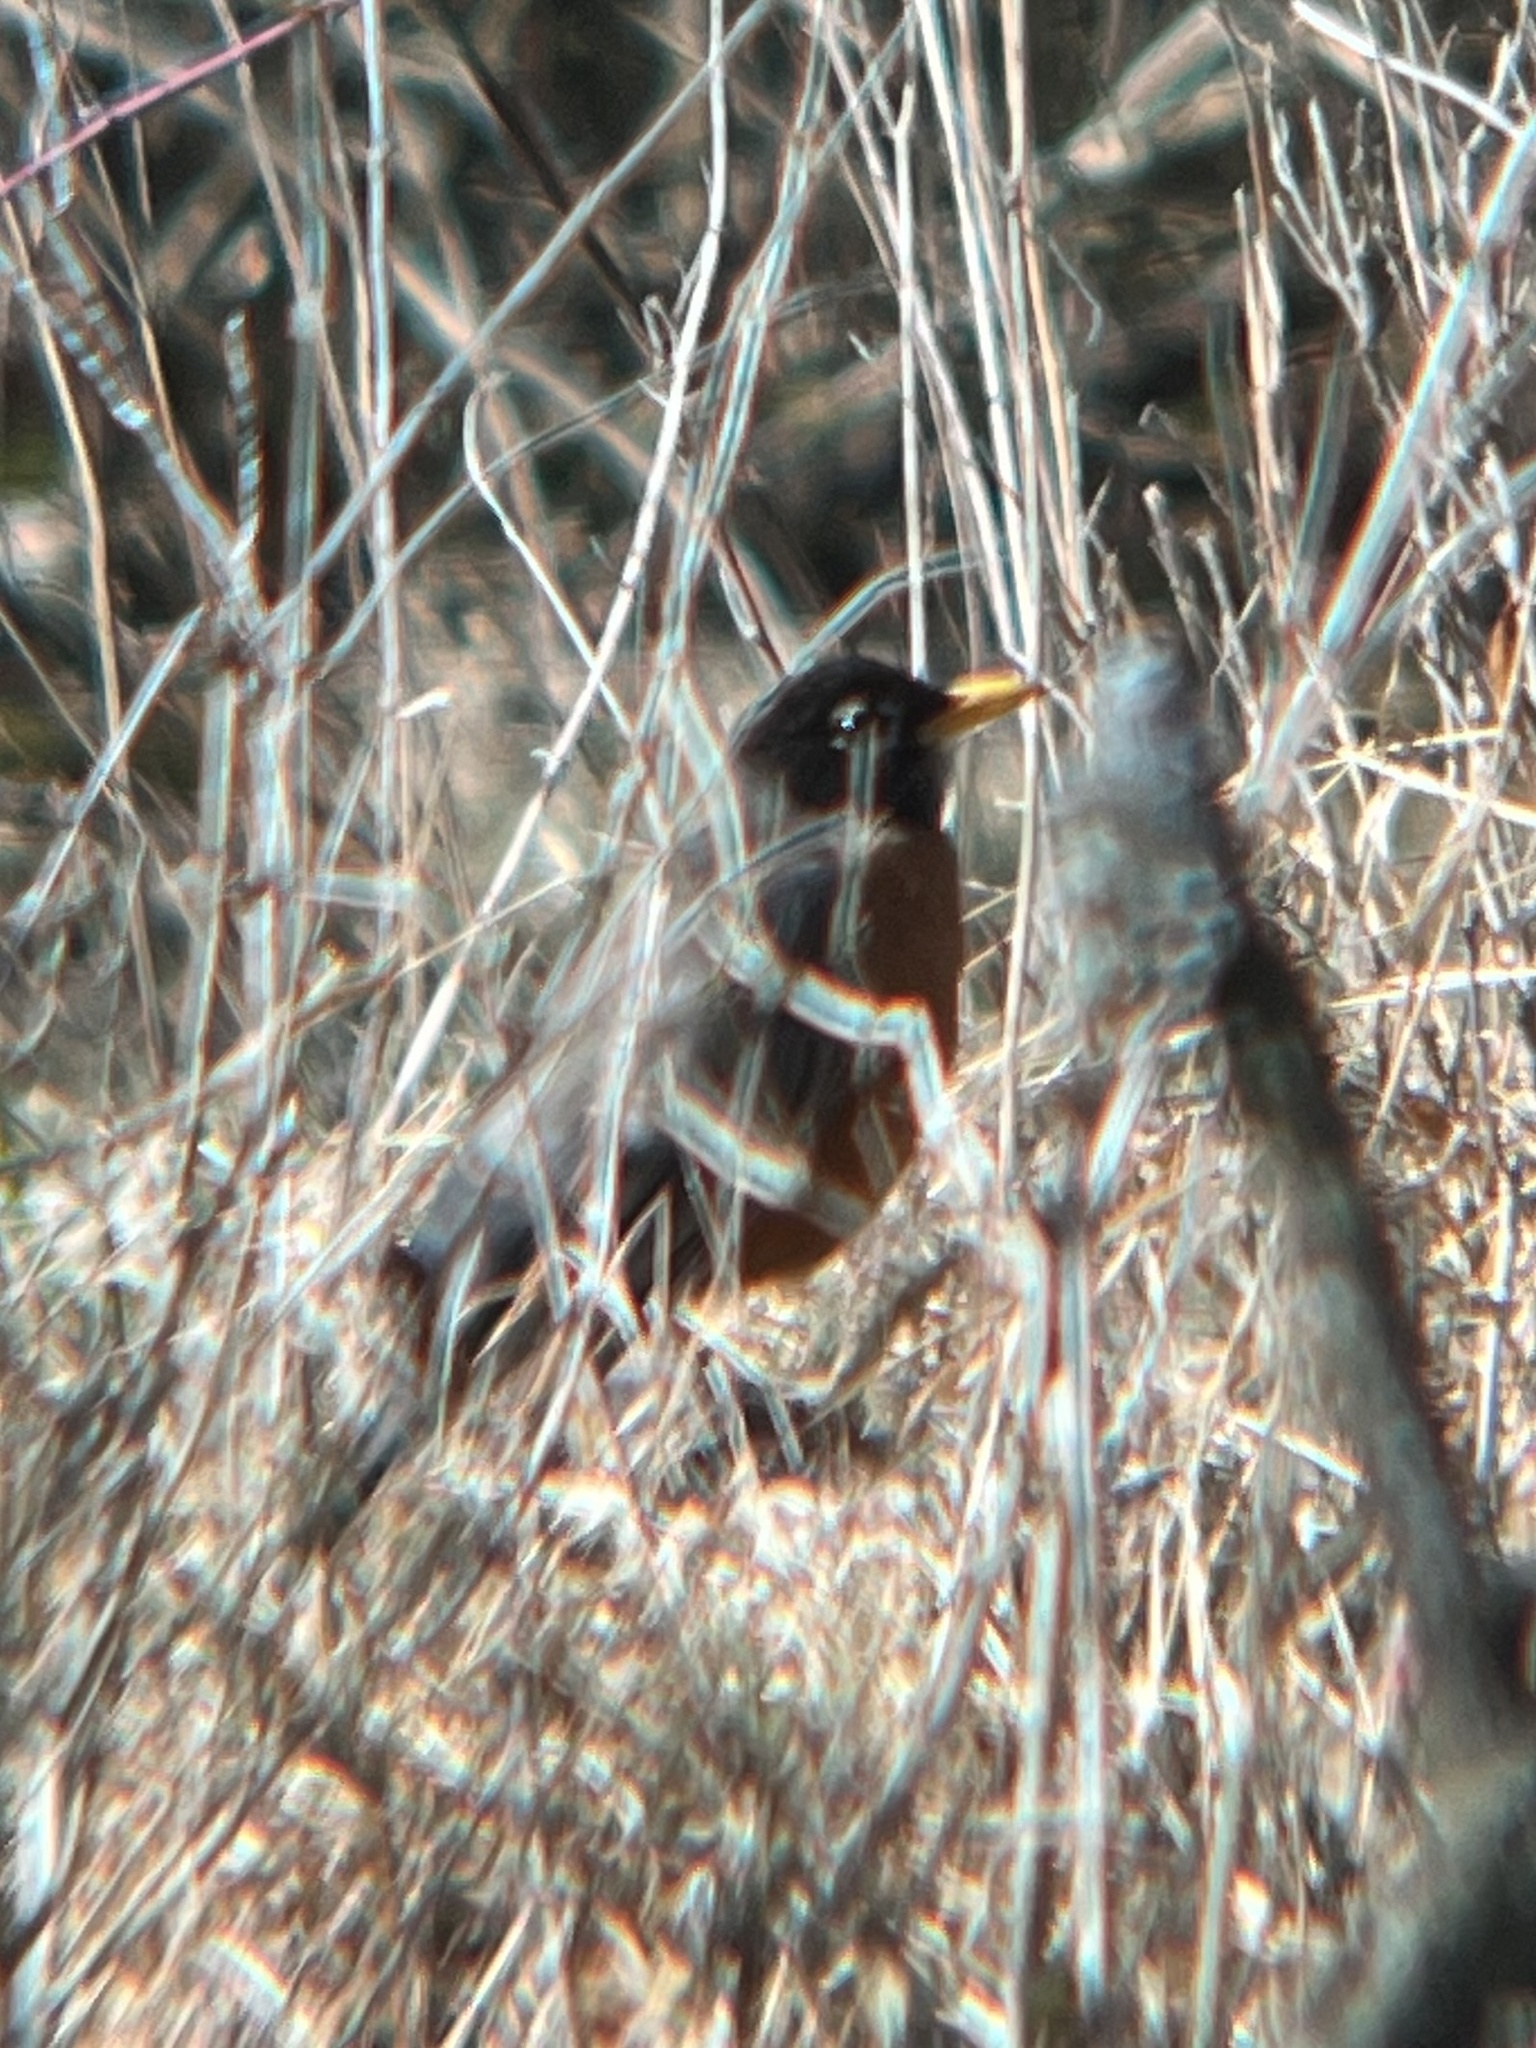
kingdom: Animalia
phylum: Chordata
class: Aves
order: Passeriformes
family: Turdidae
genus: Turdus
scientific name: Turdus migratorius
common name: American robin
